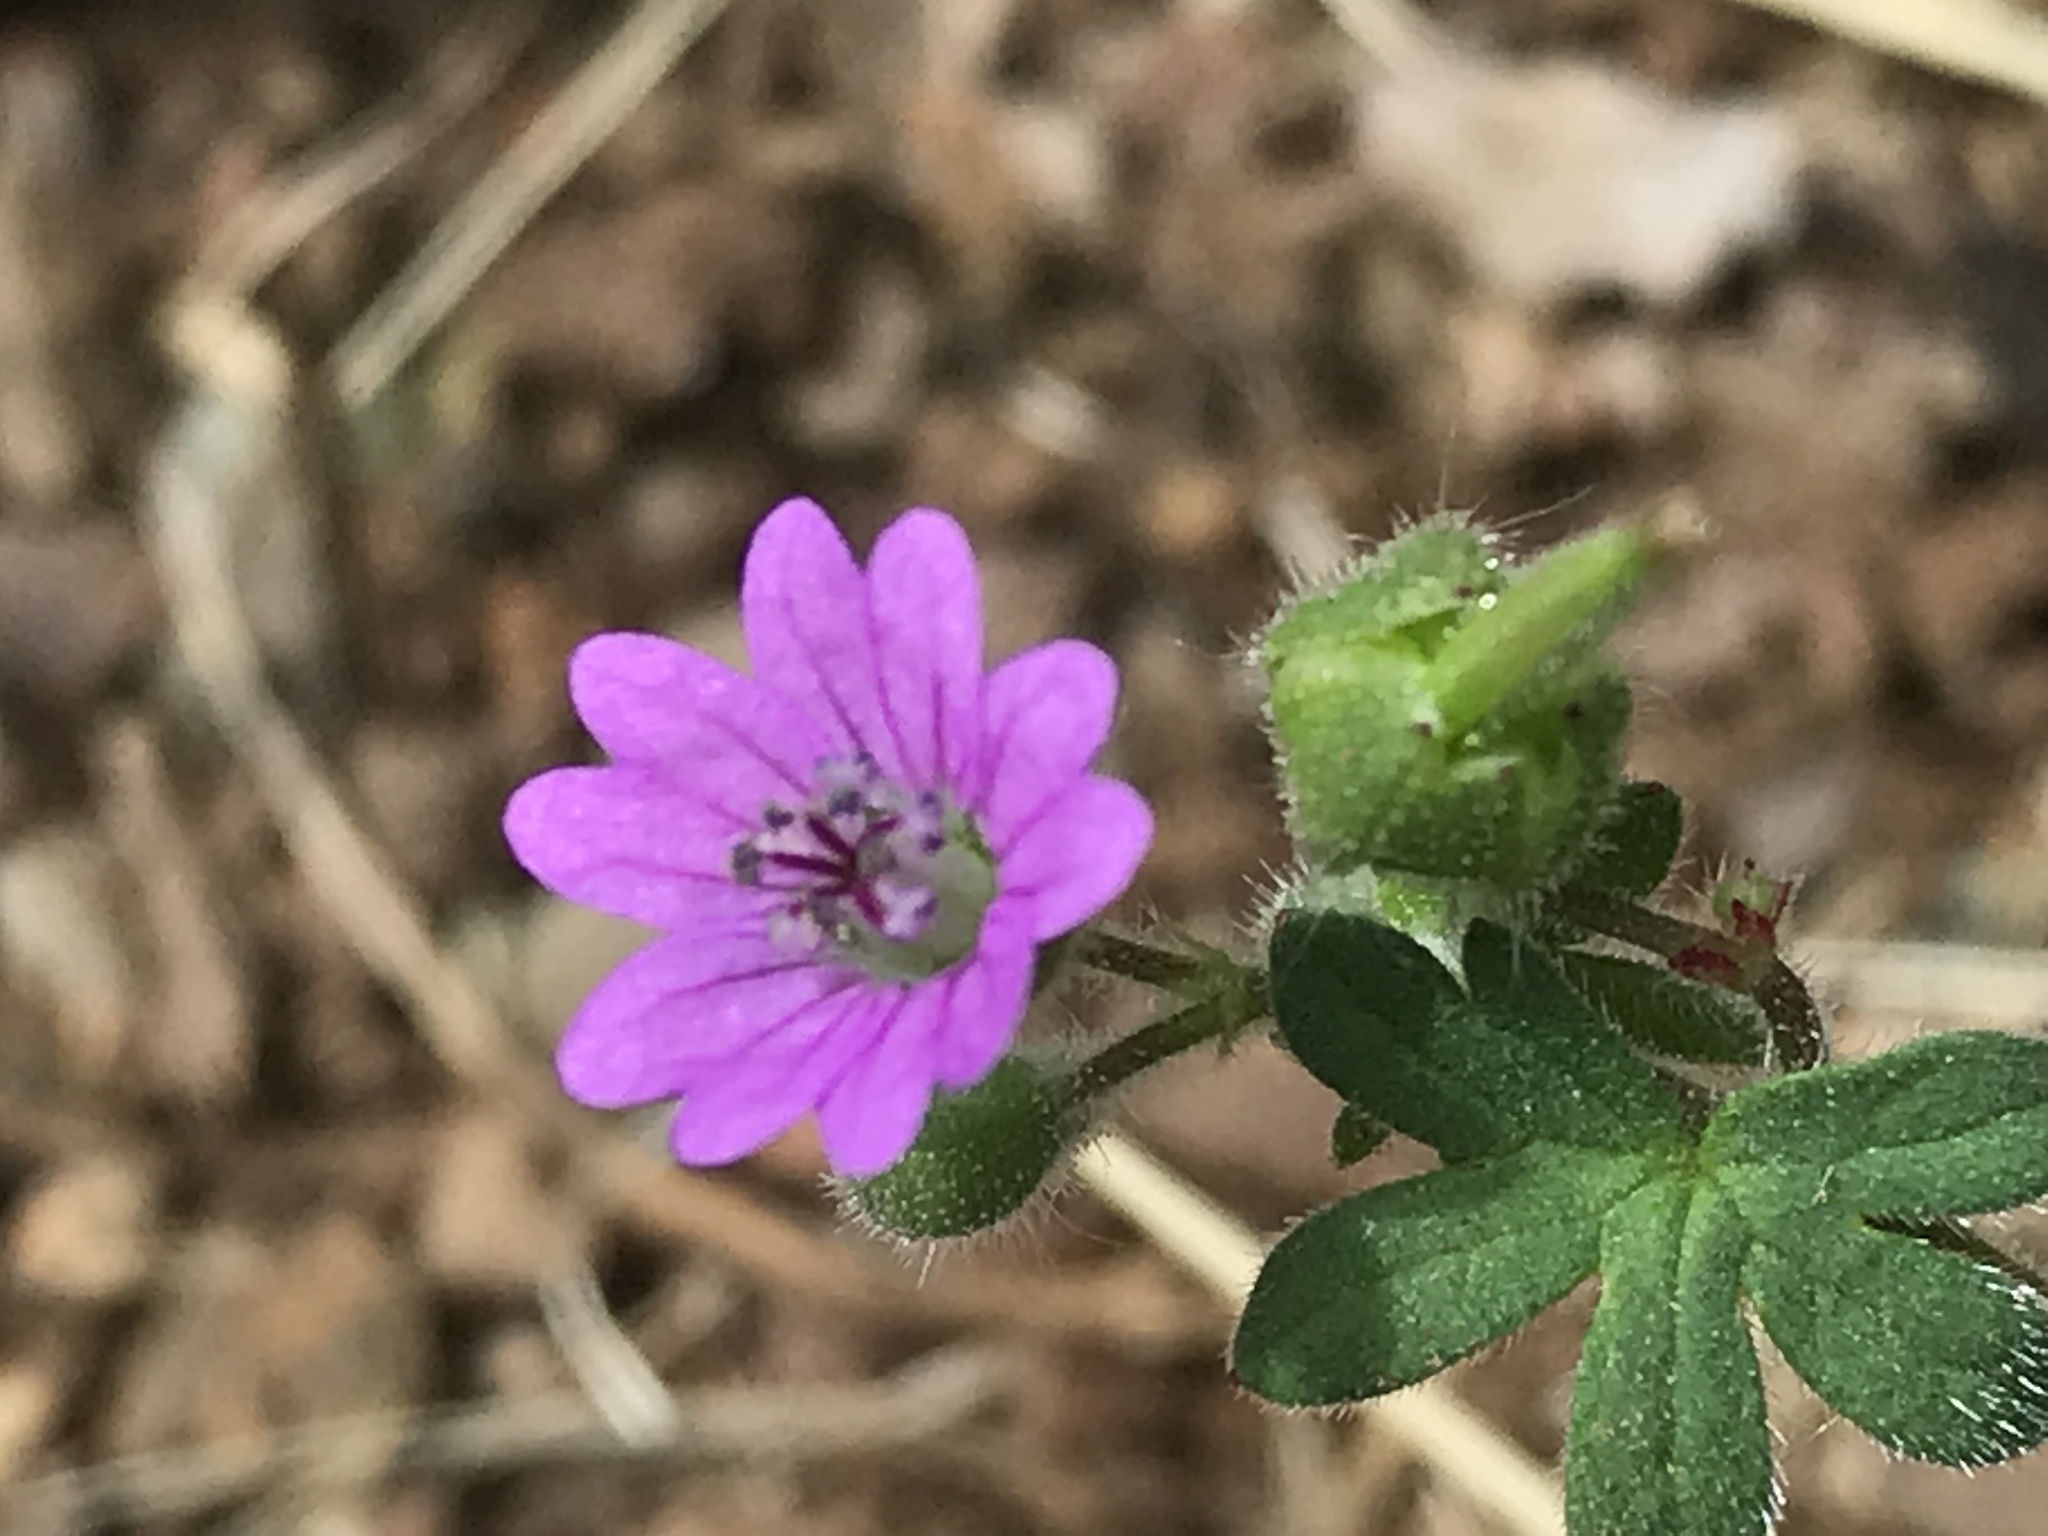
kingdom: Plantae
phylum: Tracheophyta
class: Magnoliopsida
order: Geraniales
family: Geraniaceae
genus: Geranium
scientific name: Geranium molle
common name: Dove's-foot crane's-bill
